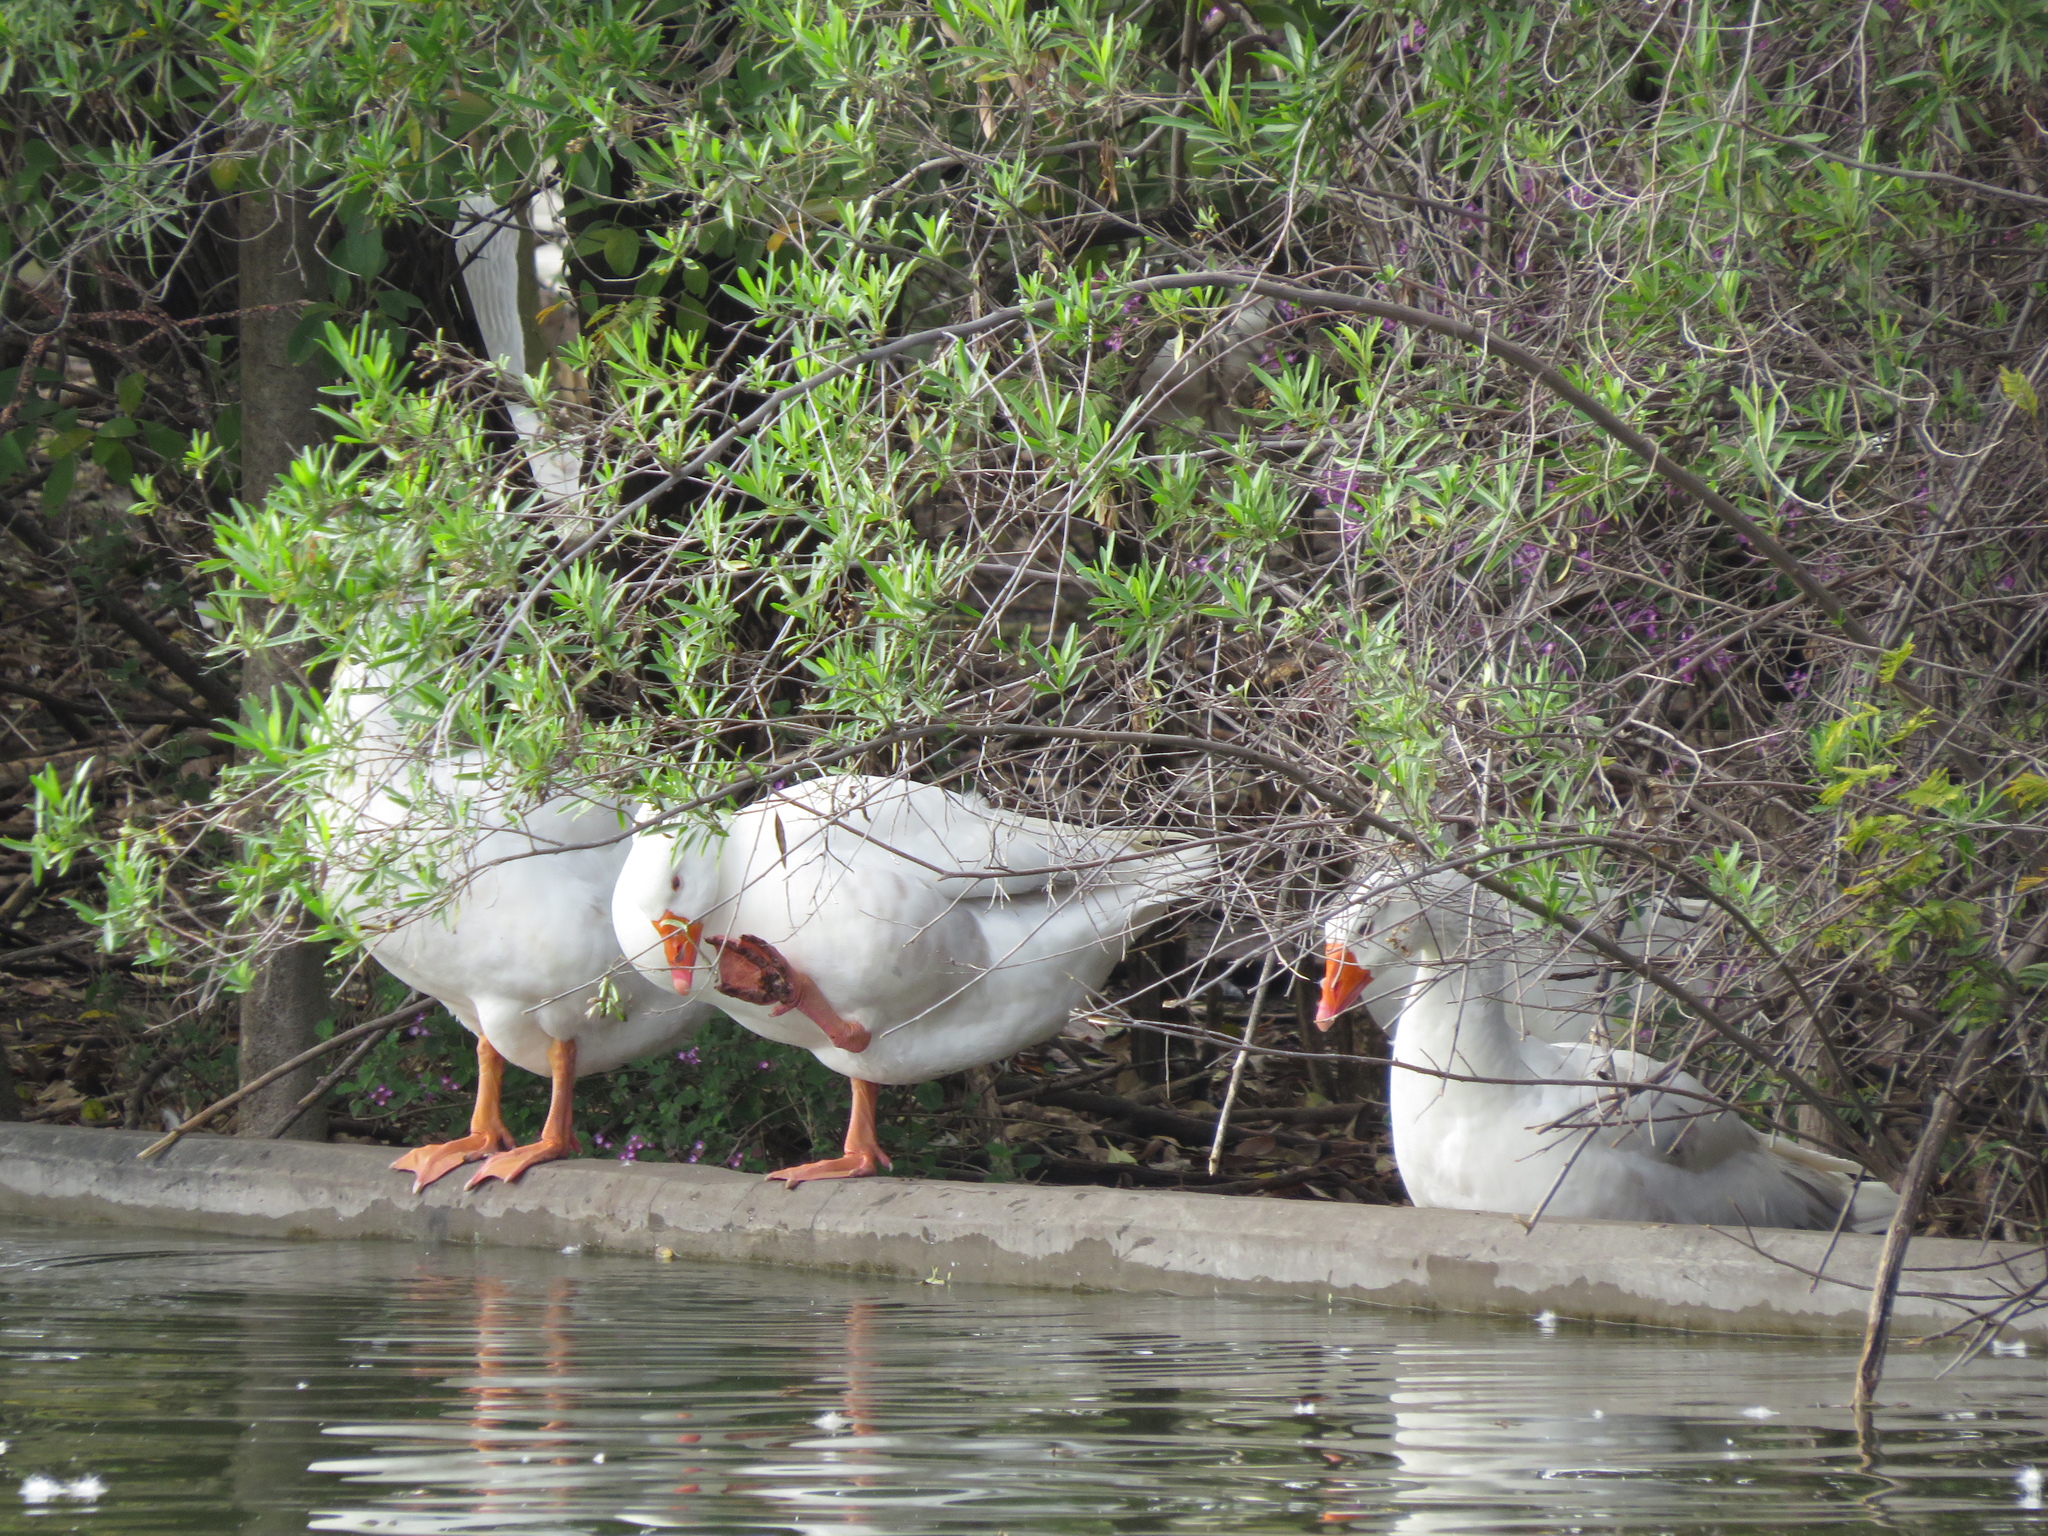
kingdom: Animalia
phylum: Chordata
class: Aves
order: Anseriformes
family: Anatidae
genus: Anser
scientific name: Anser anser
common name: Greylag goose
